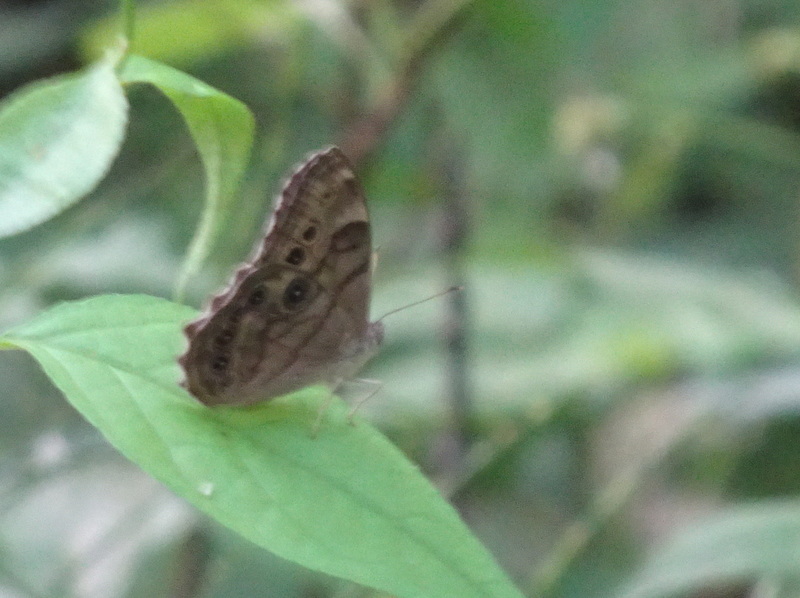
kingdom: Animalia
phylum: Arthropoda
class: Insecta
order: Lepidoptera
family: Nymphalidae
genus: Lethe
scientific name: Lethe anthedon
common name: Northern pearly-eye
